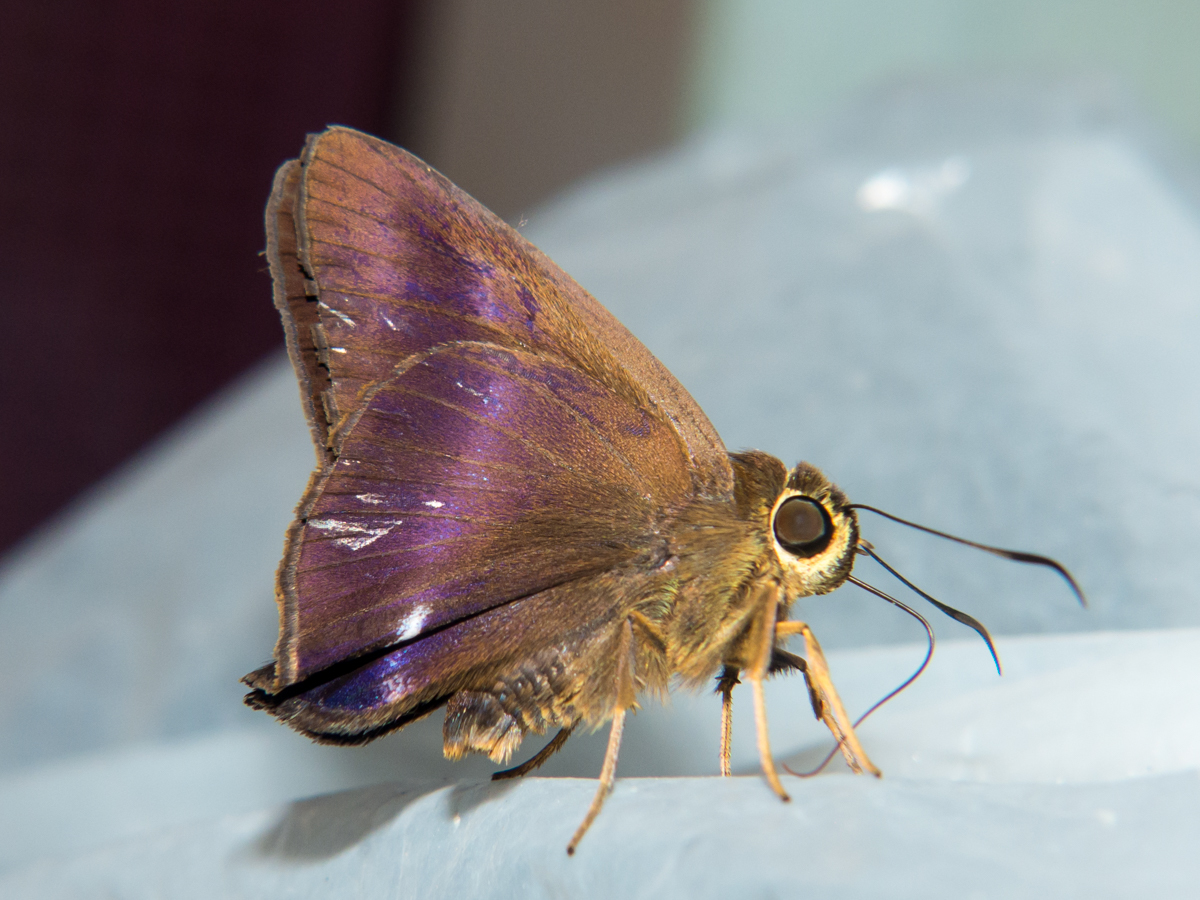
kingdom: Animalia
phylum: Arthropoda
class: Insecta
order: Lepidoptera
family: Hesperiidae
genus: Hasora
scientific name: Hasora leucospila
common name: Violet awl
